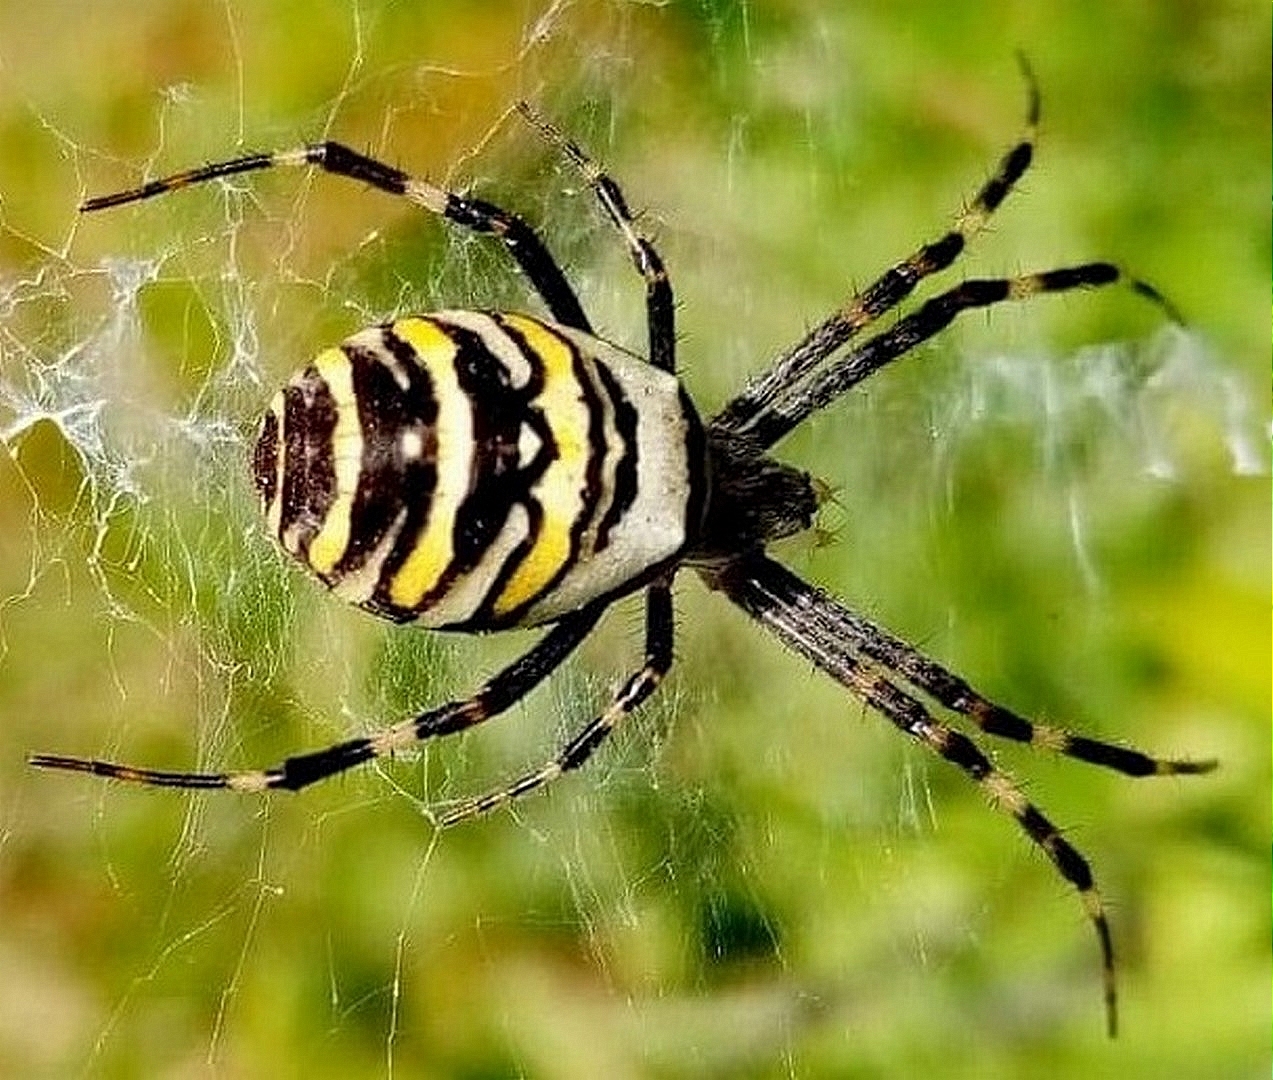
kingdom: Animalia
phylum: Arthropoda
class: Arachnida
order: Araneae
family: Araneidae
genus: Argiope
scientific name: Argiope bruennichi
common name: Wasp spider
